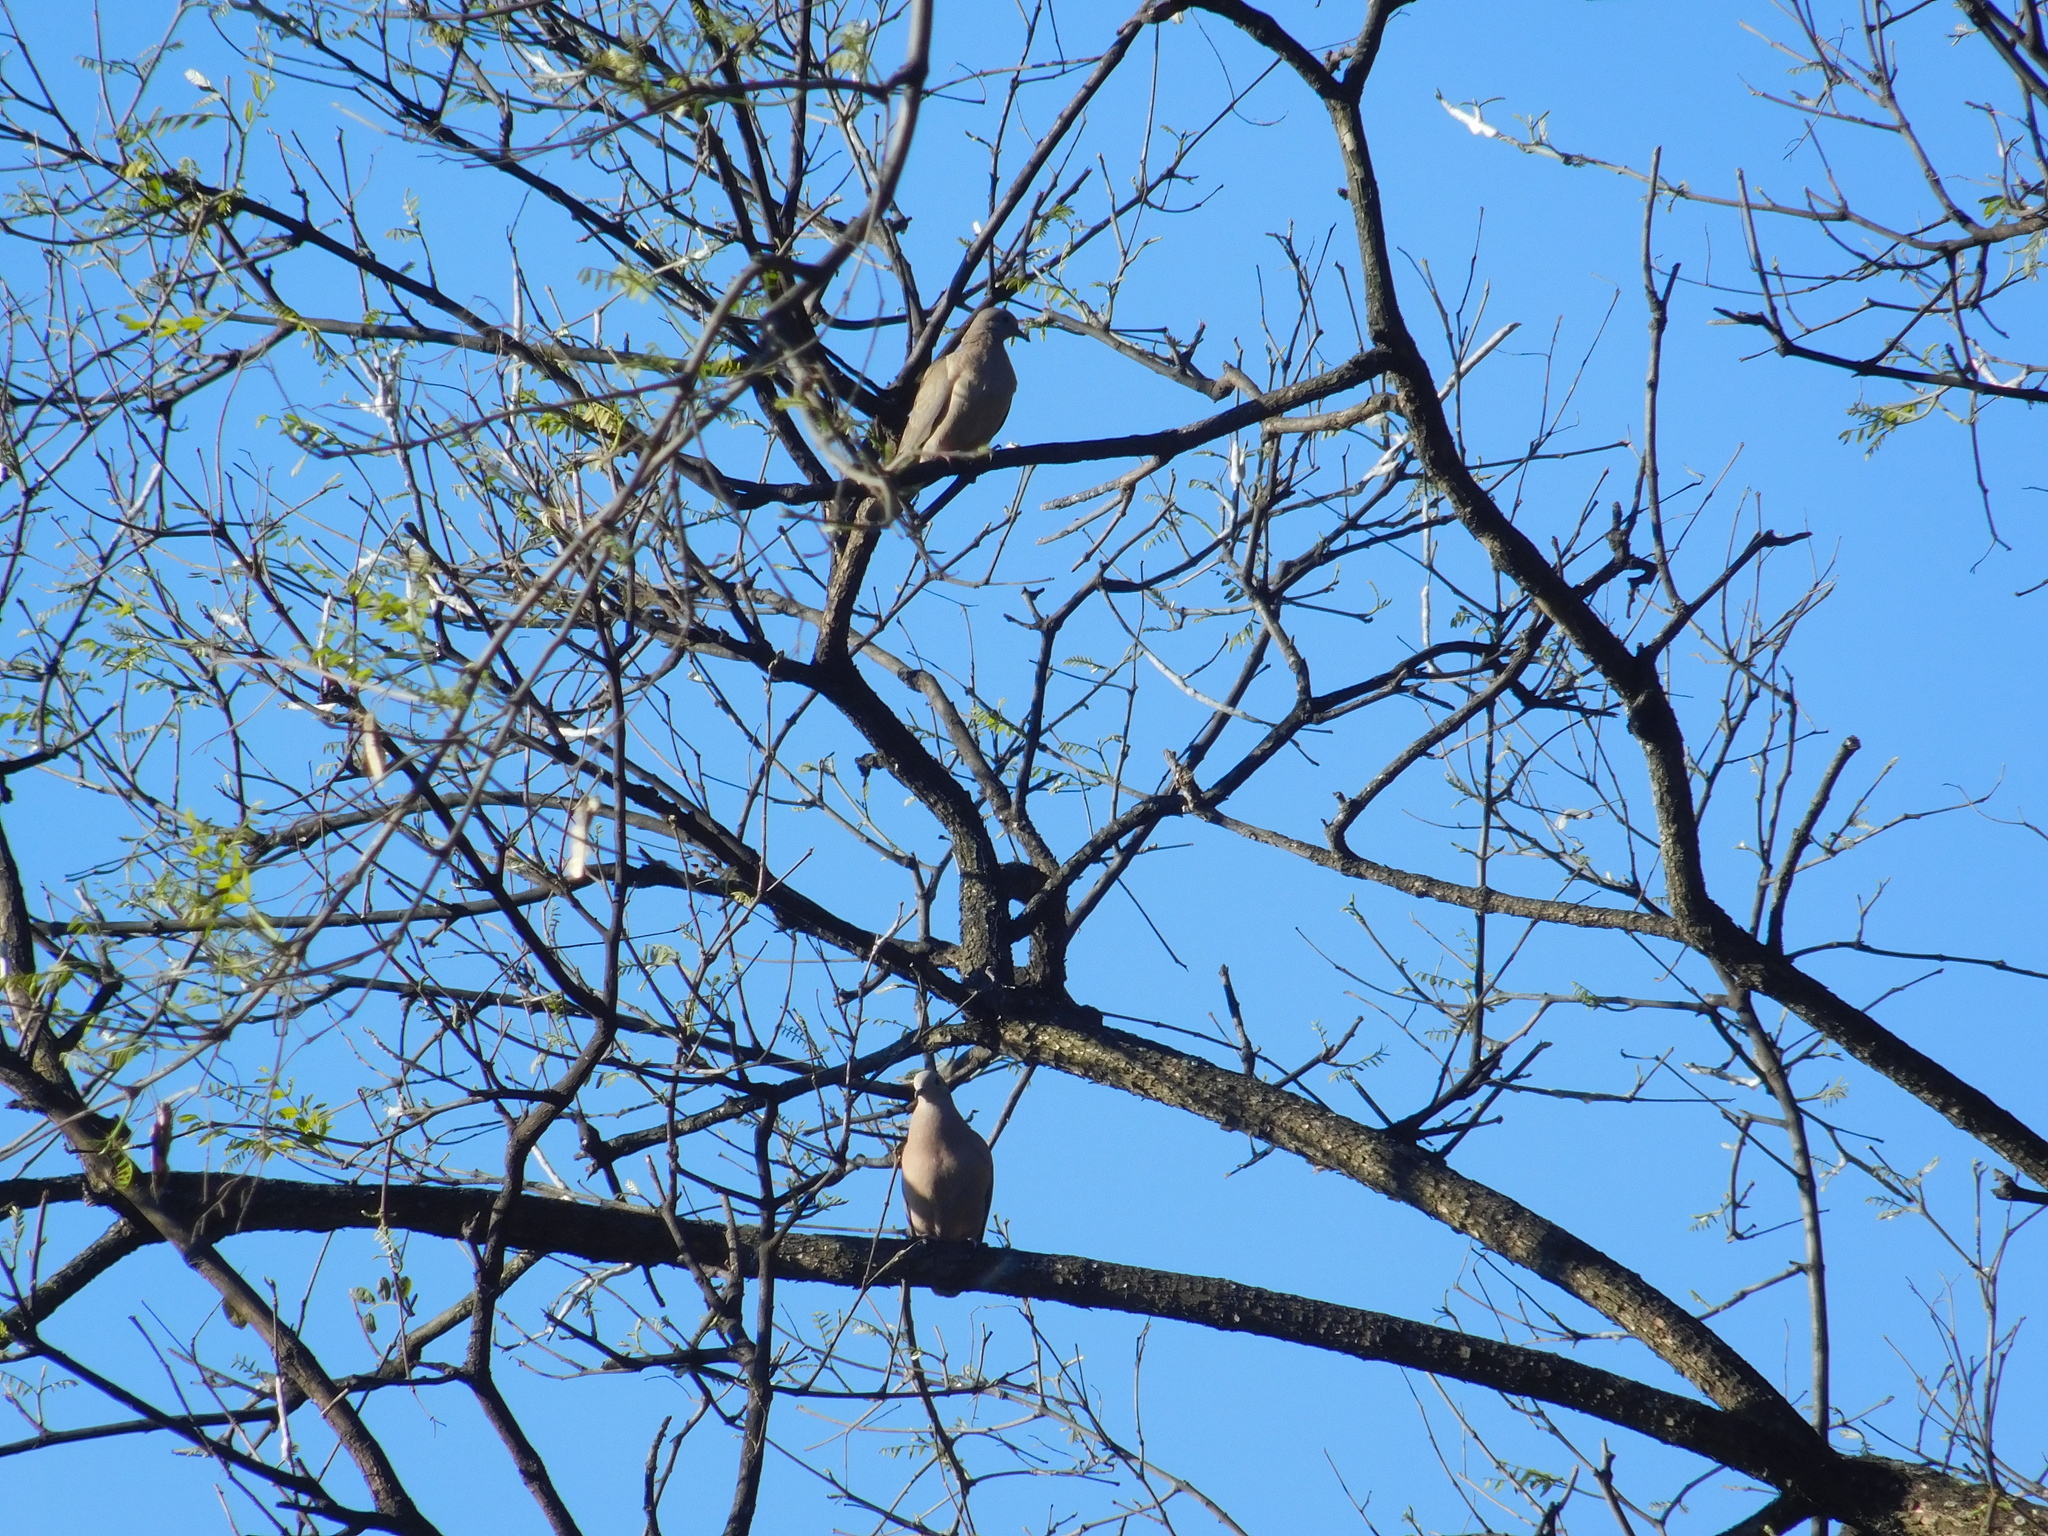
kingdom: Animalia
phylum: Chordata
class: Aves
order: Columbiformes
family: Columbidae
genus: Zenaida
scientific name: Zenaida auriculata
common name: Eared dove
